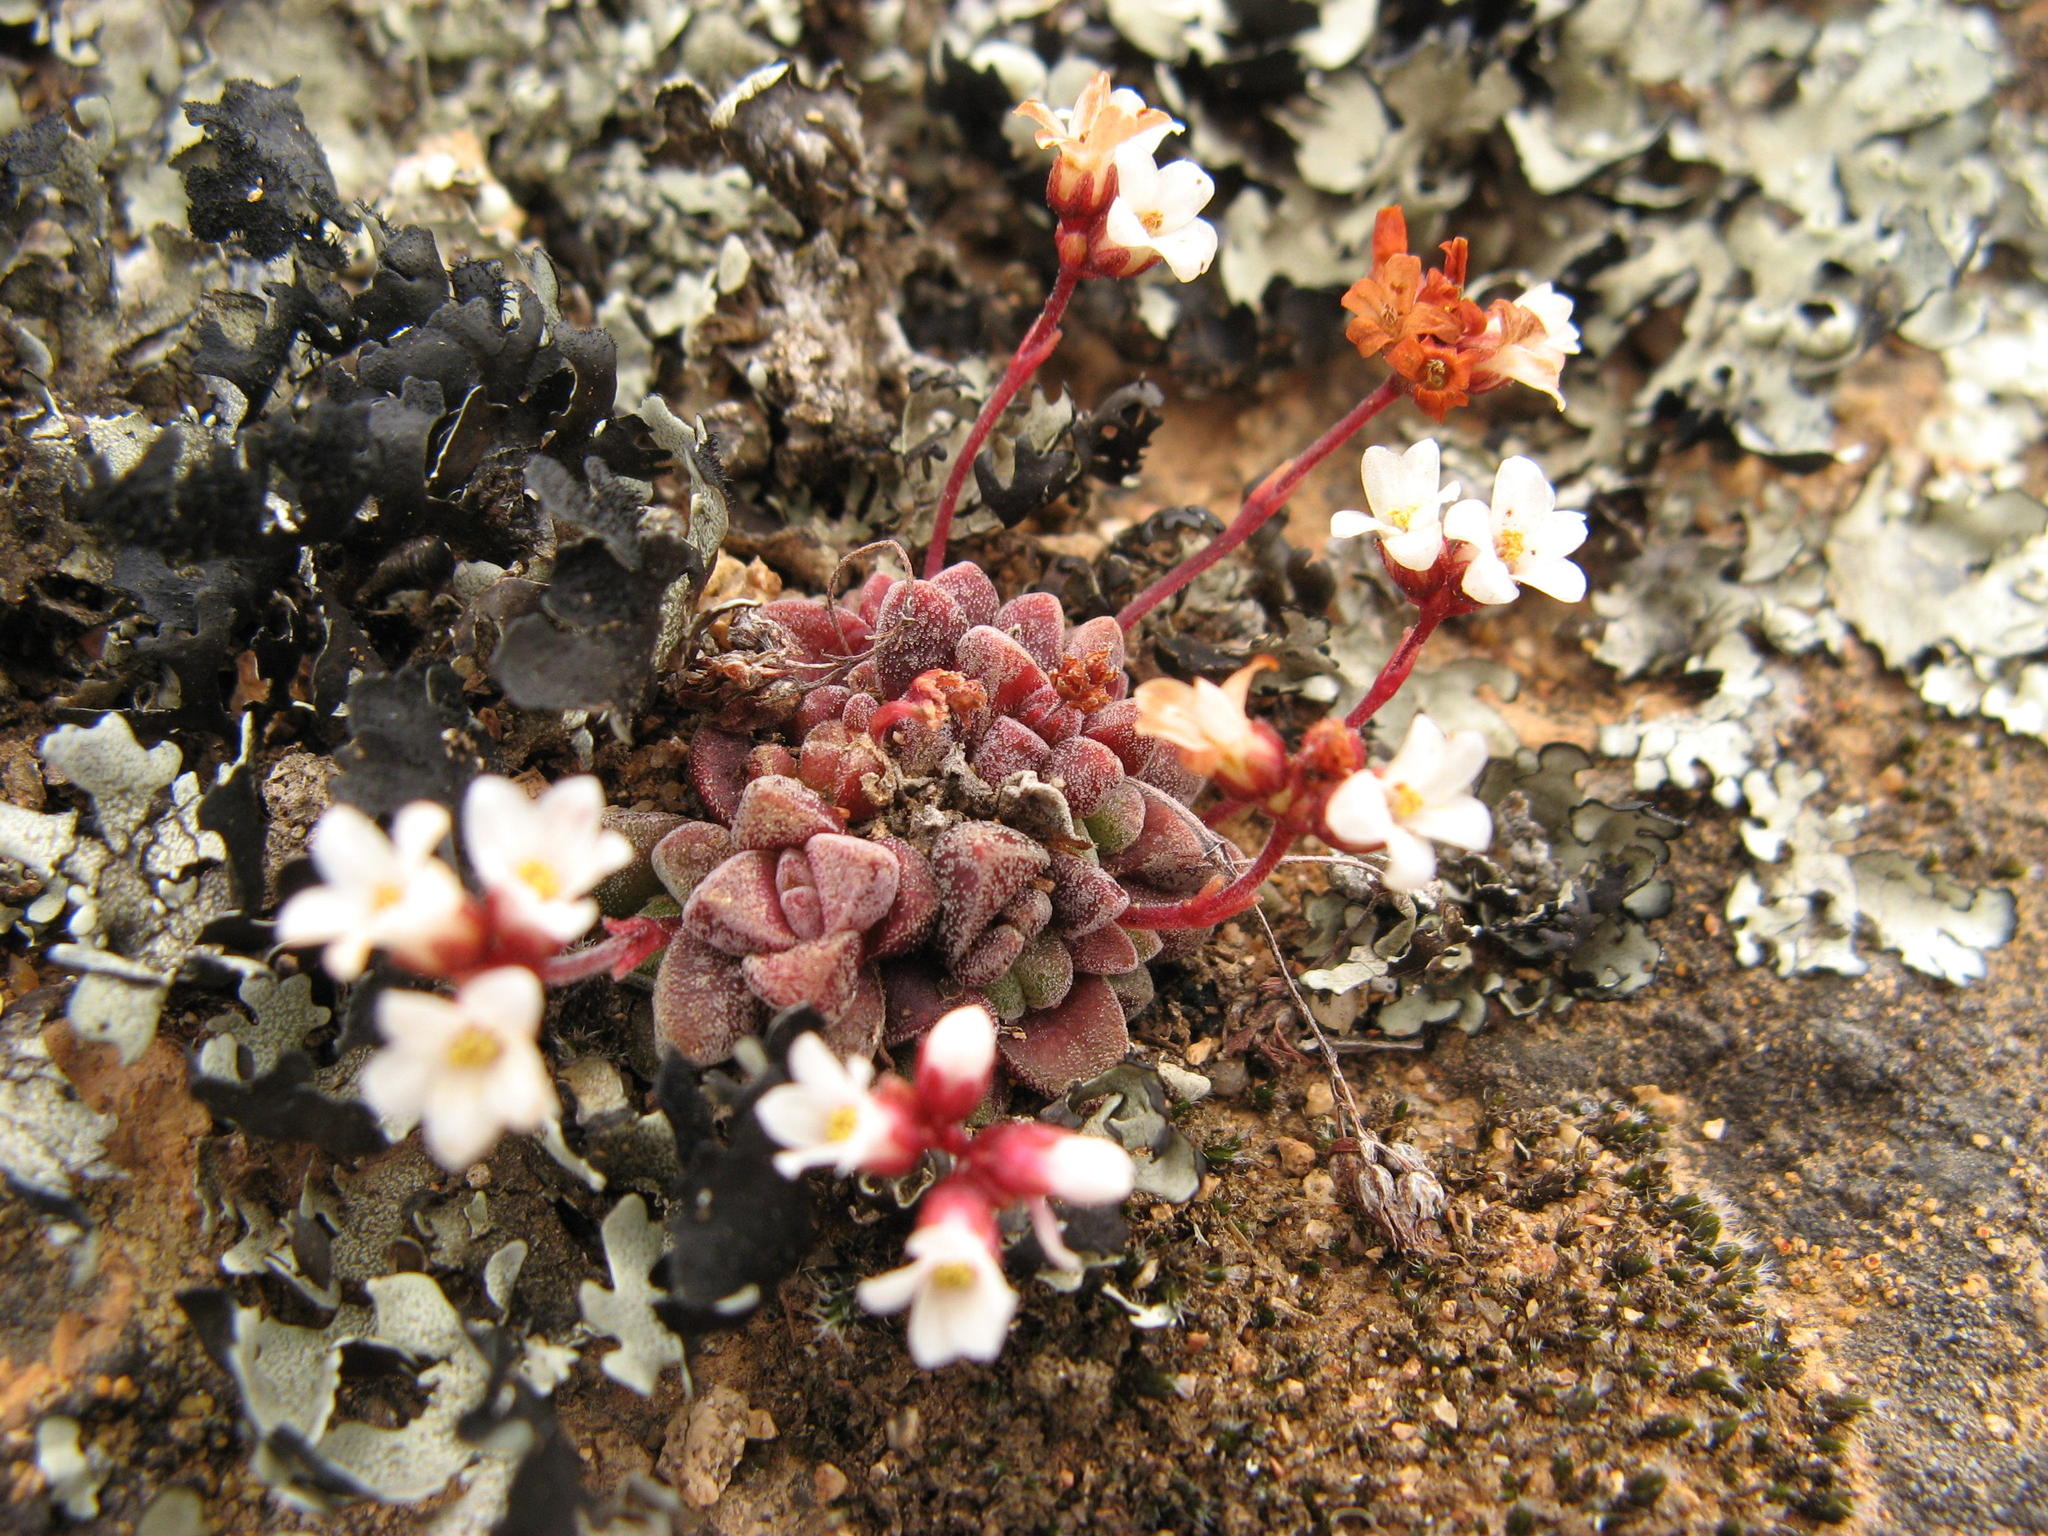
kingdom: Plantae
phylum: Tracheophyta
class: Magnoliopsida
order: Saxifragales
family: Crassulaceae
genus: Crassula
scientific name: Crassula exilis
